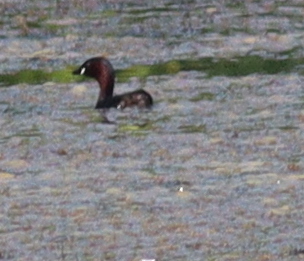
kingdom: Animalia
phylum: Chordata
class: Aves
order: Podicipediformes
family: Podicipedidae
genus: Tachybaptus
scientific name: Tachybaptus ruficollis
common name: Little grebe
